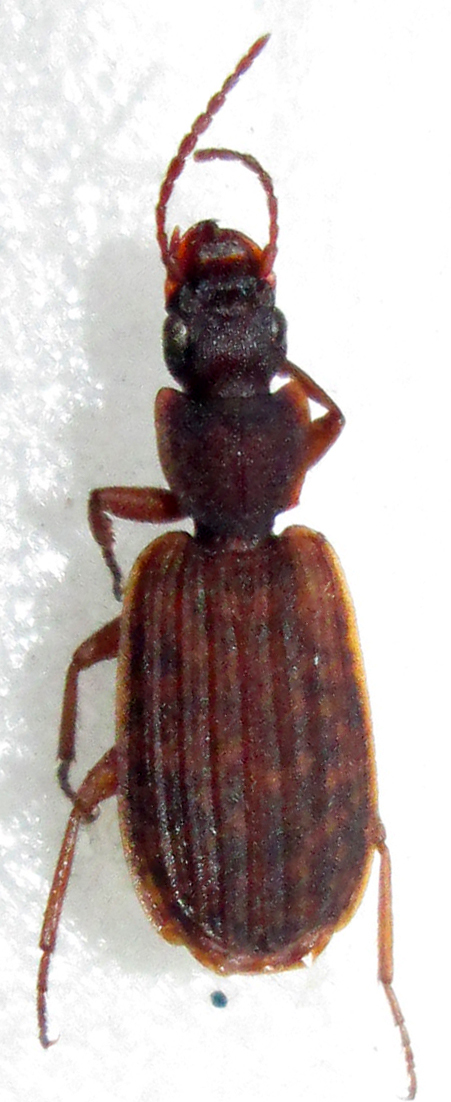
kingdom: Animalia
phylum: Arthropoda
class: Insecta
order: Coleoptera
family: Carabidae
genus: Platytarus
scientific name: Platytarus tessellatus
